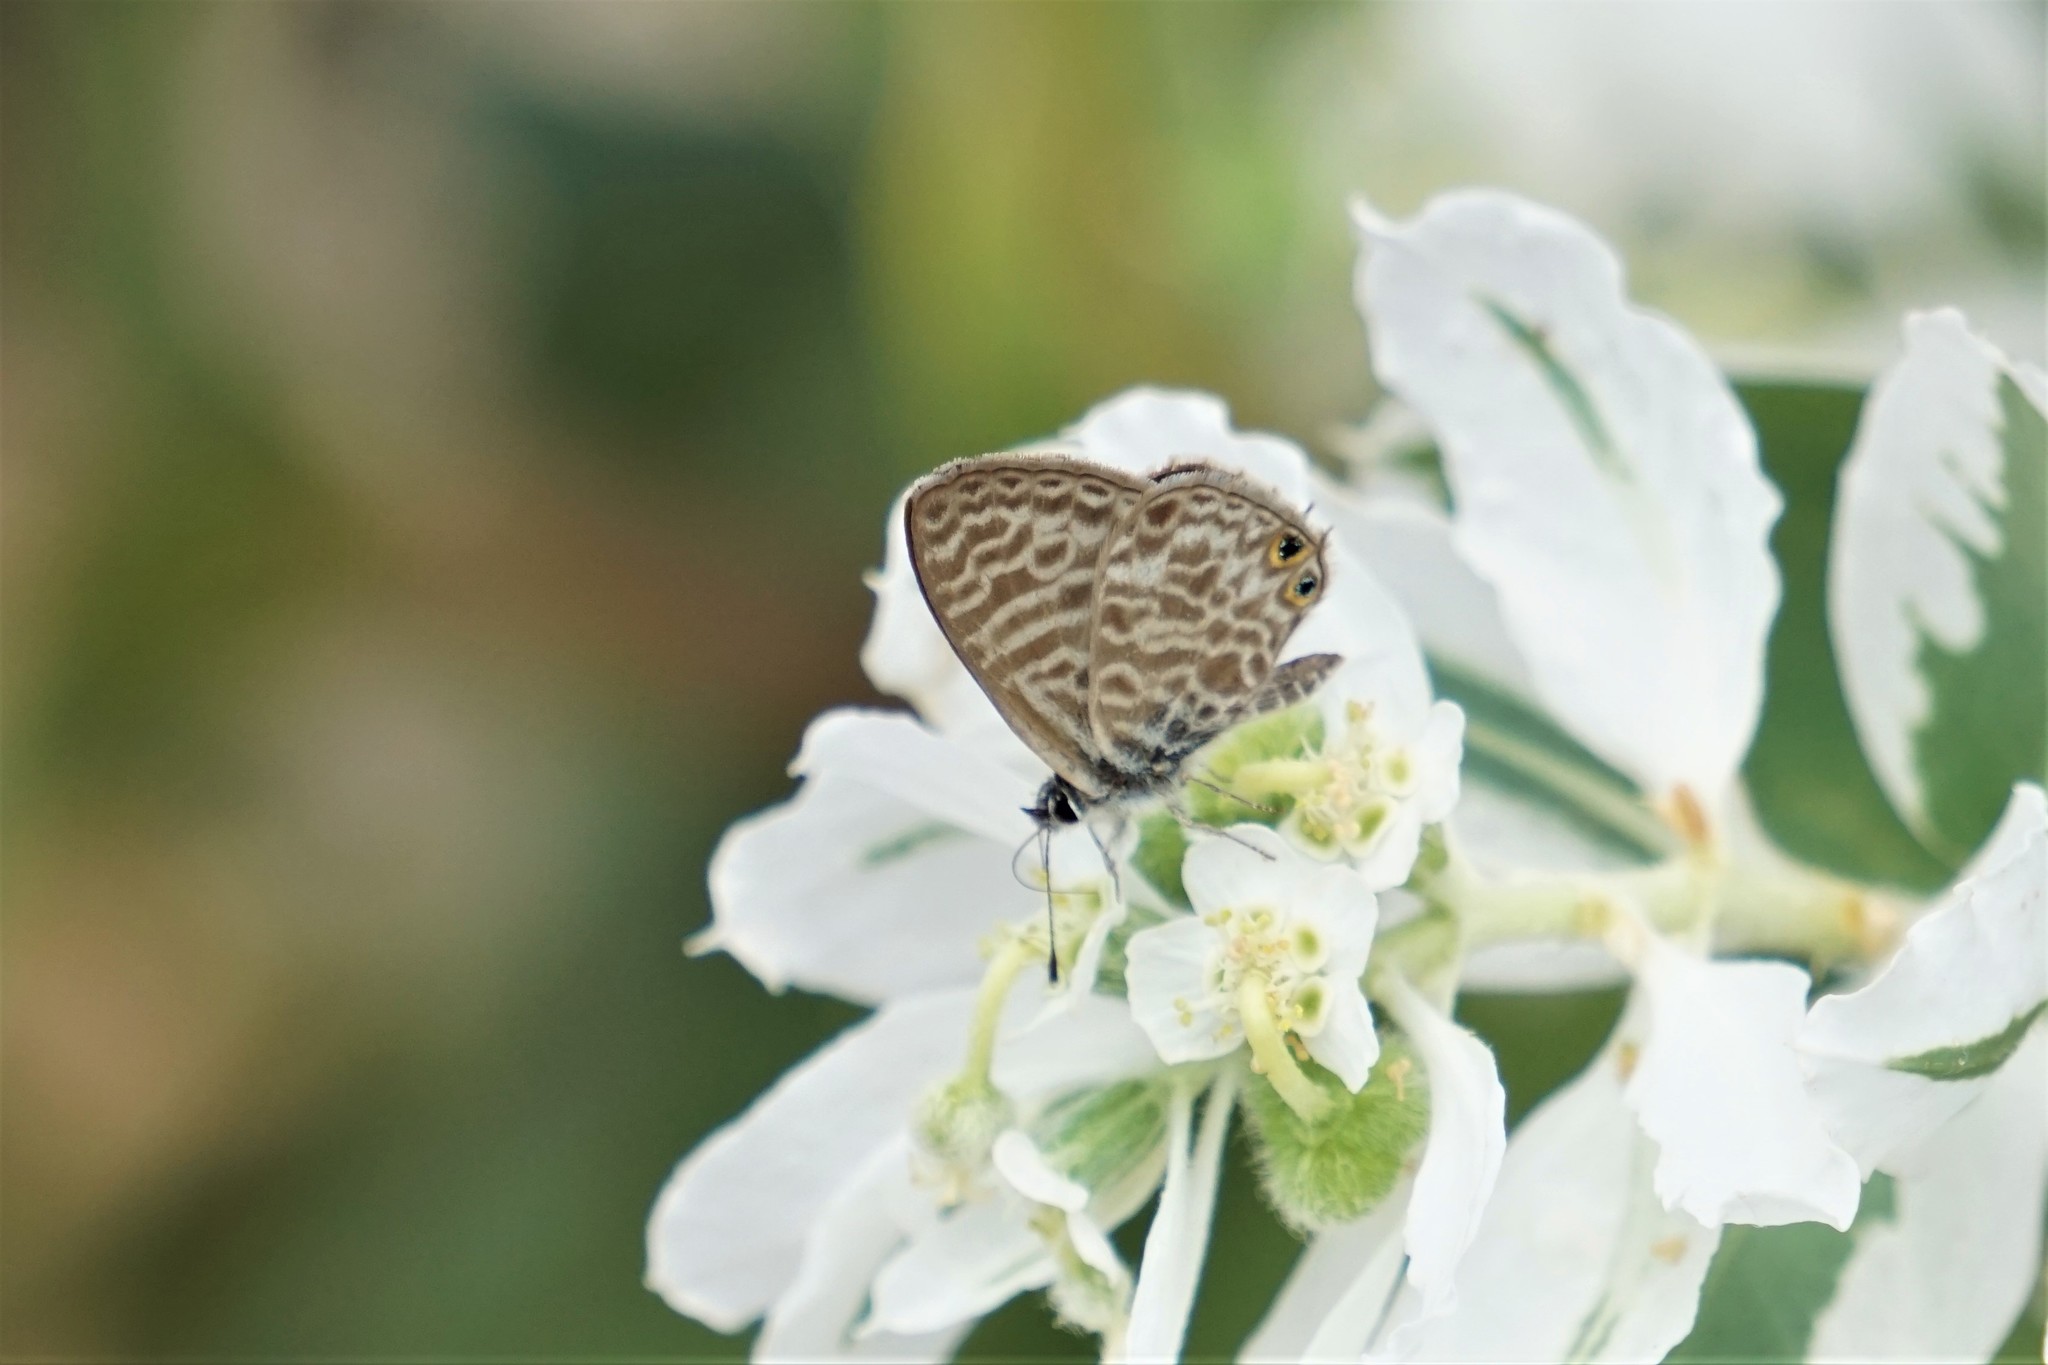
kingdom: Animalia
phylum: Arthropoda
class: Insecta
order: Lepidoptera
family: Lycaenidae
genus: Leptotes
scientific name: Leptotes pirithous
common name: Lang's short-tailed blue
